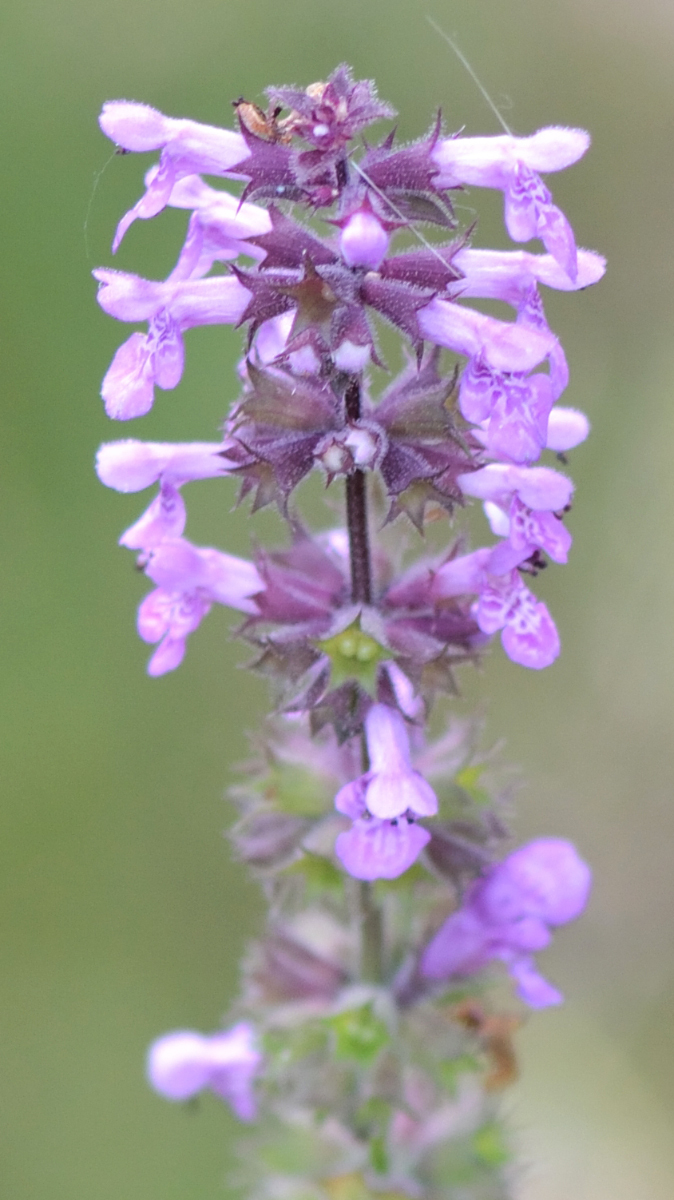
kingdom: Plantae
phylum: Tracheophyta
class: Magnoliopsida
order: Lamiales
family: Lamiaceae
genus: Stachys
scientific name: Stachys palustris
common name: Marsh woundwort
